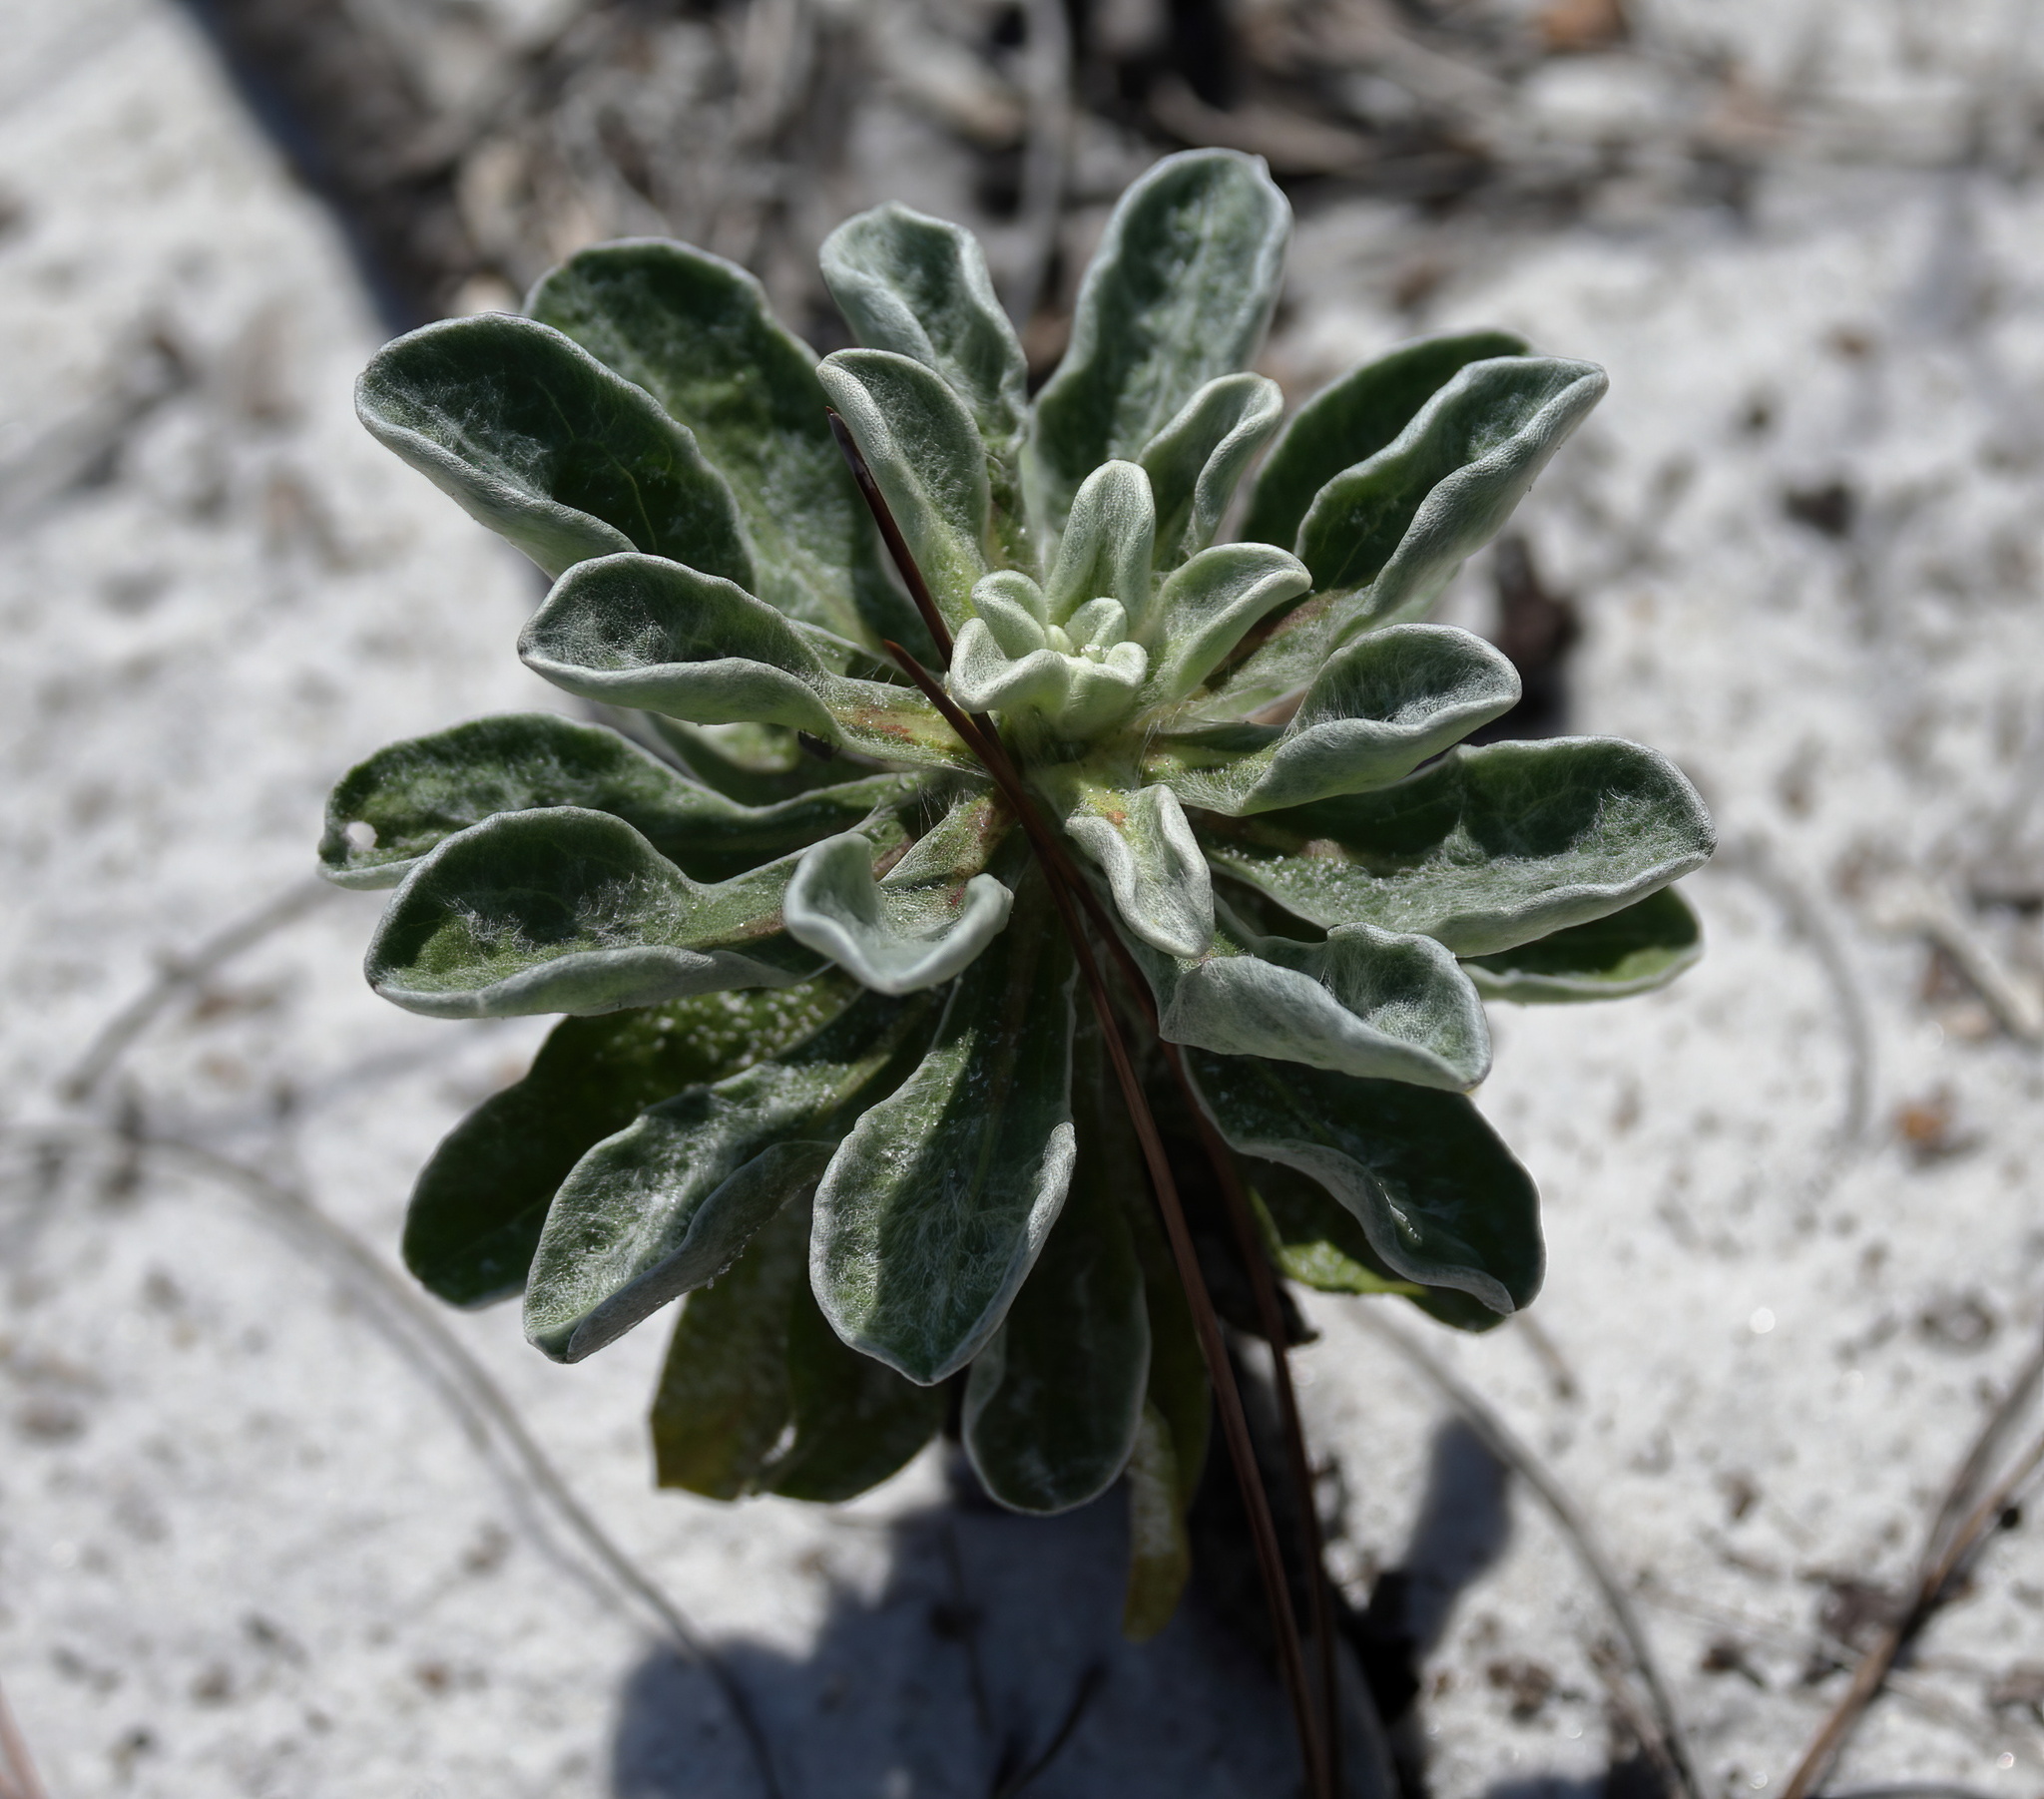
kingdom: Plantae
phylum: Tracheophyta
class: Magnoliopsida
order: Asterales
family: Asteraceae
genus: Chrysopsis
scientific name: Chrysopsis godfreyi
